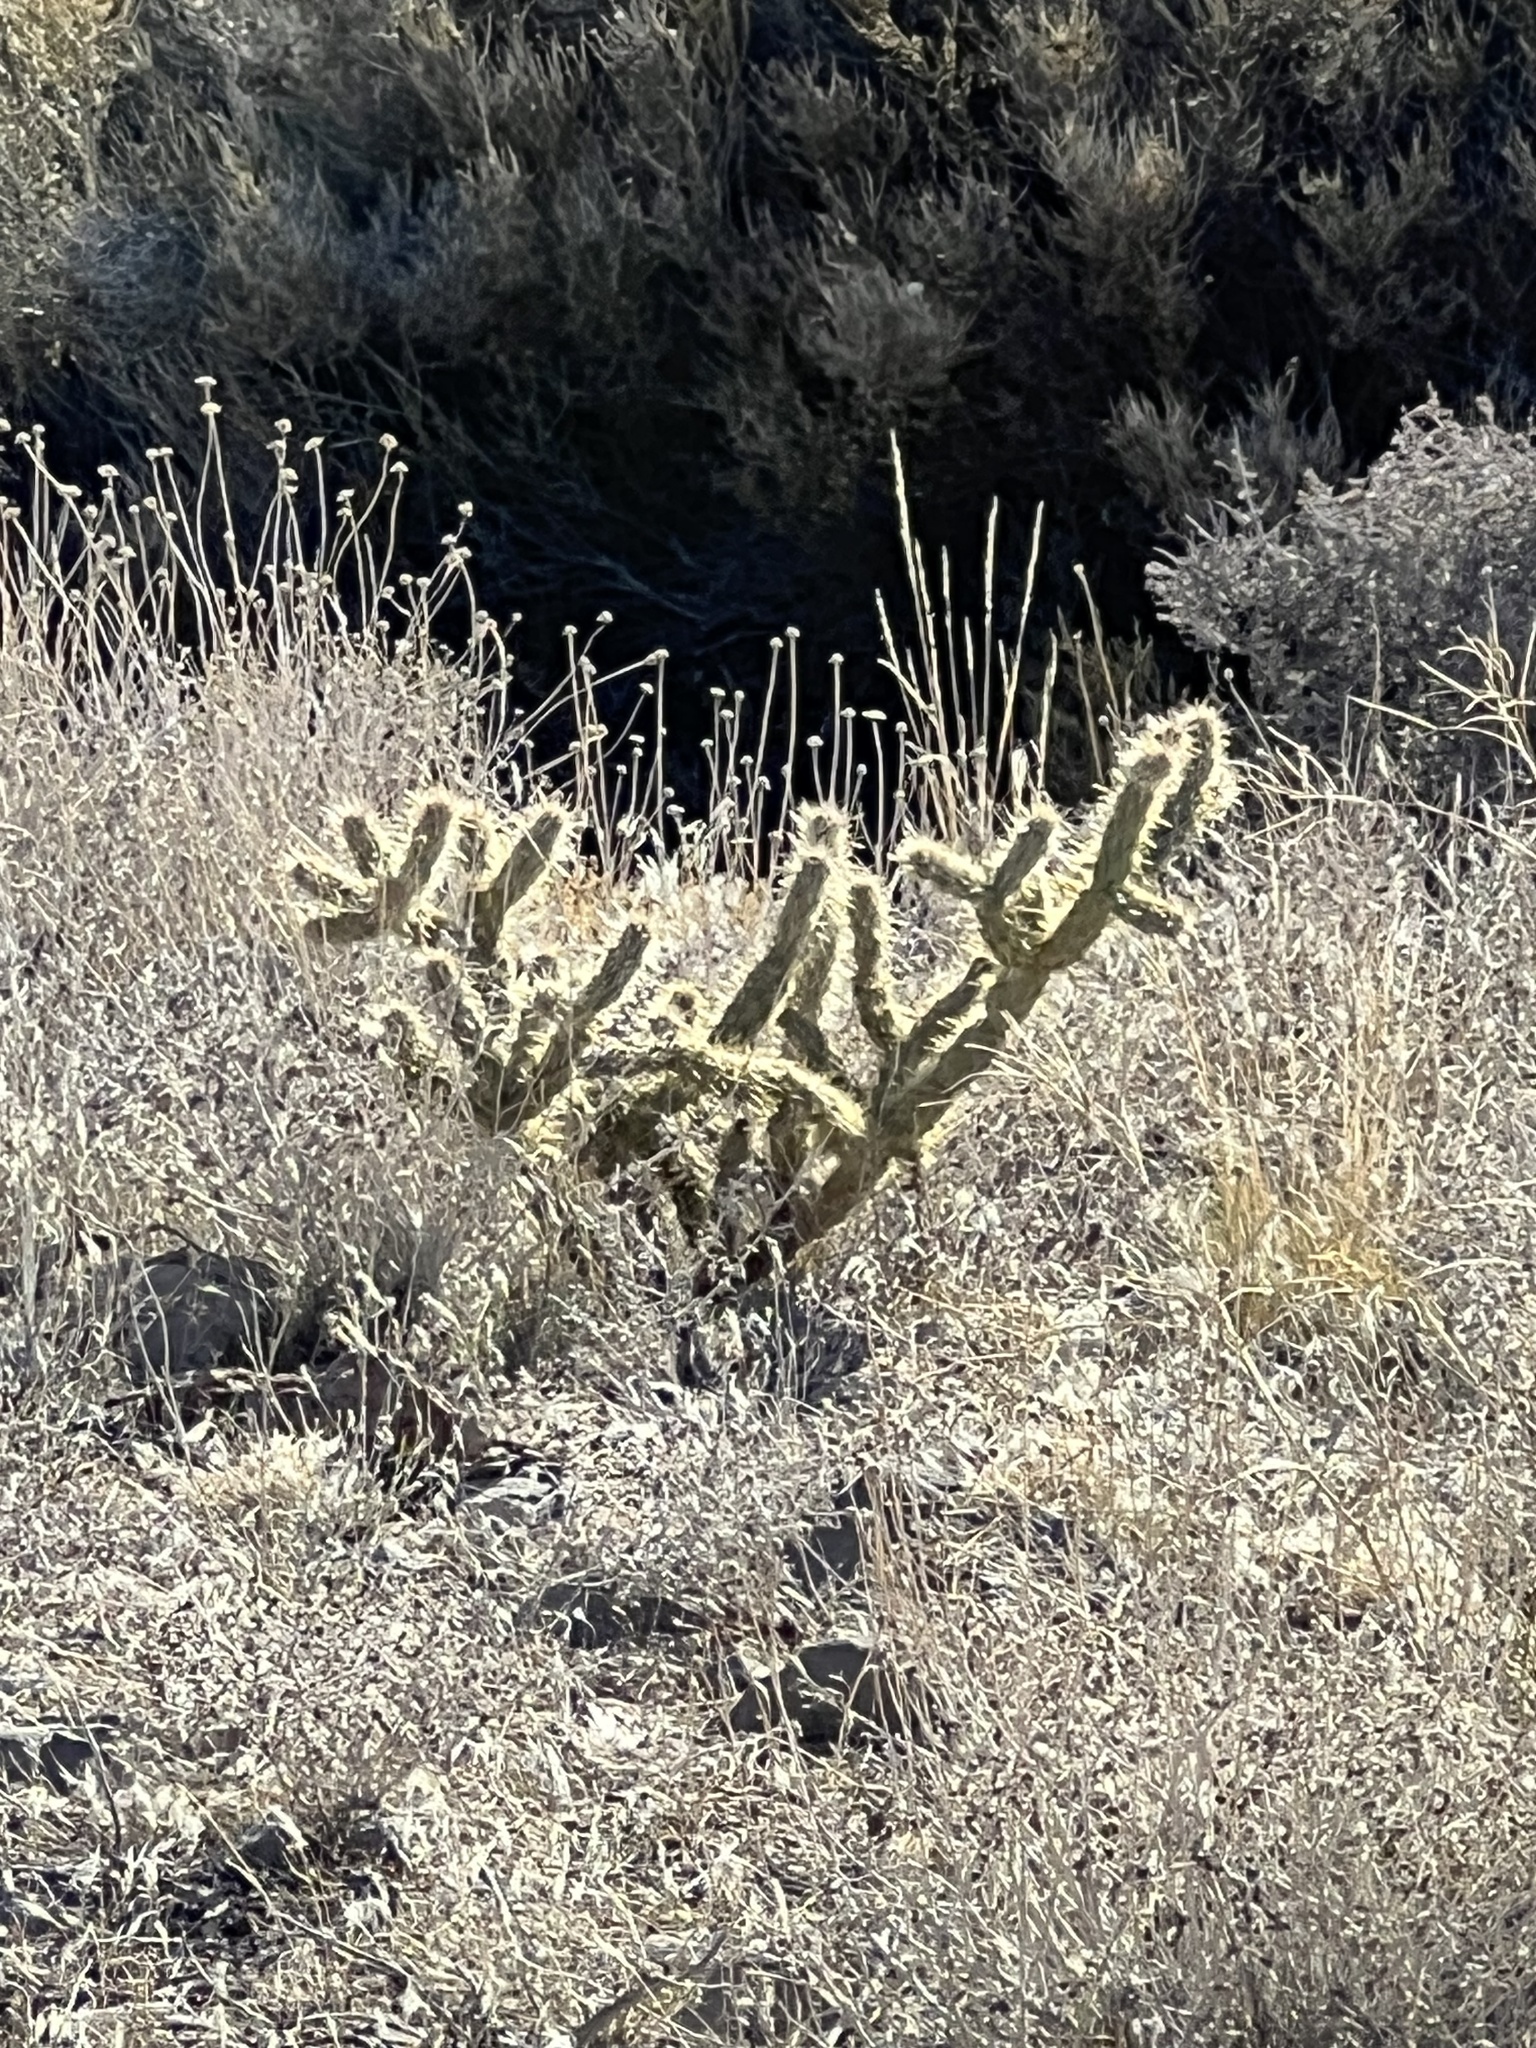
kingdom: Plantae
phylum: Tracheophyta
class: Magnoliopsida
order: Caryophyllales
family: Cactaceae
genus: Cylindropuntia
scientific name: Cylindropuntia acanthocarpa
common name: Buckhorn cholla
